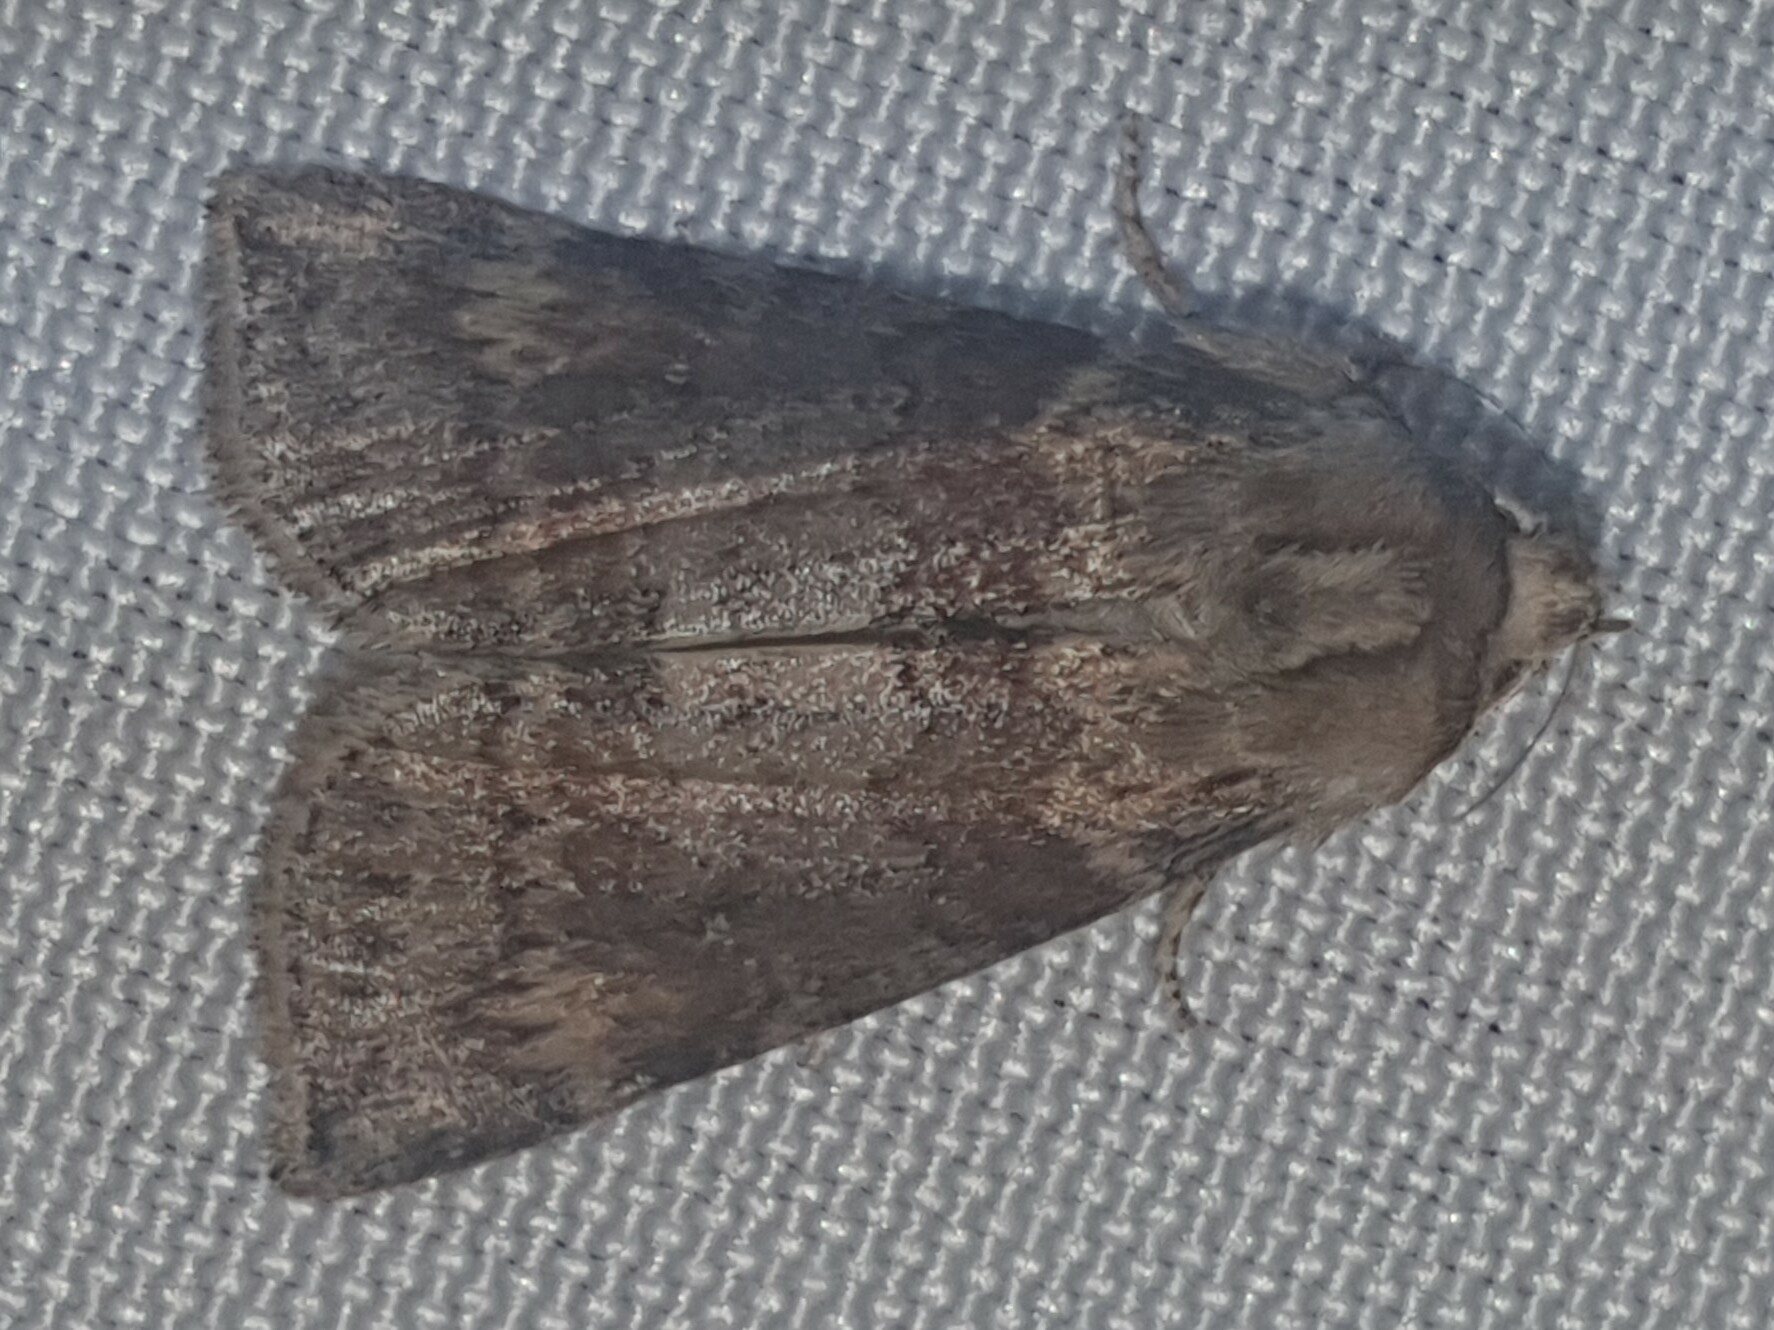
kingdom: Animalia
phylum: Arthropoda
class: Insecta
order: Lepidoptera
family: Drepanidae
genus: Cymatophorina
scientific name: Cymatophorina diluta
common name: Oak lutestring
